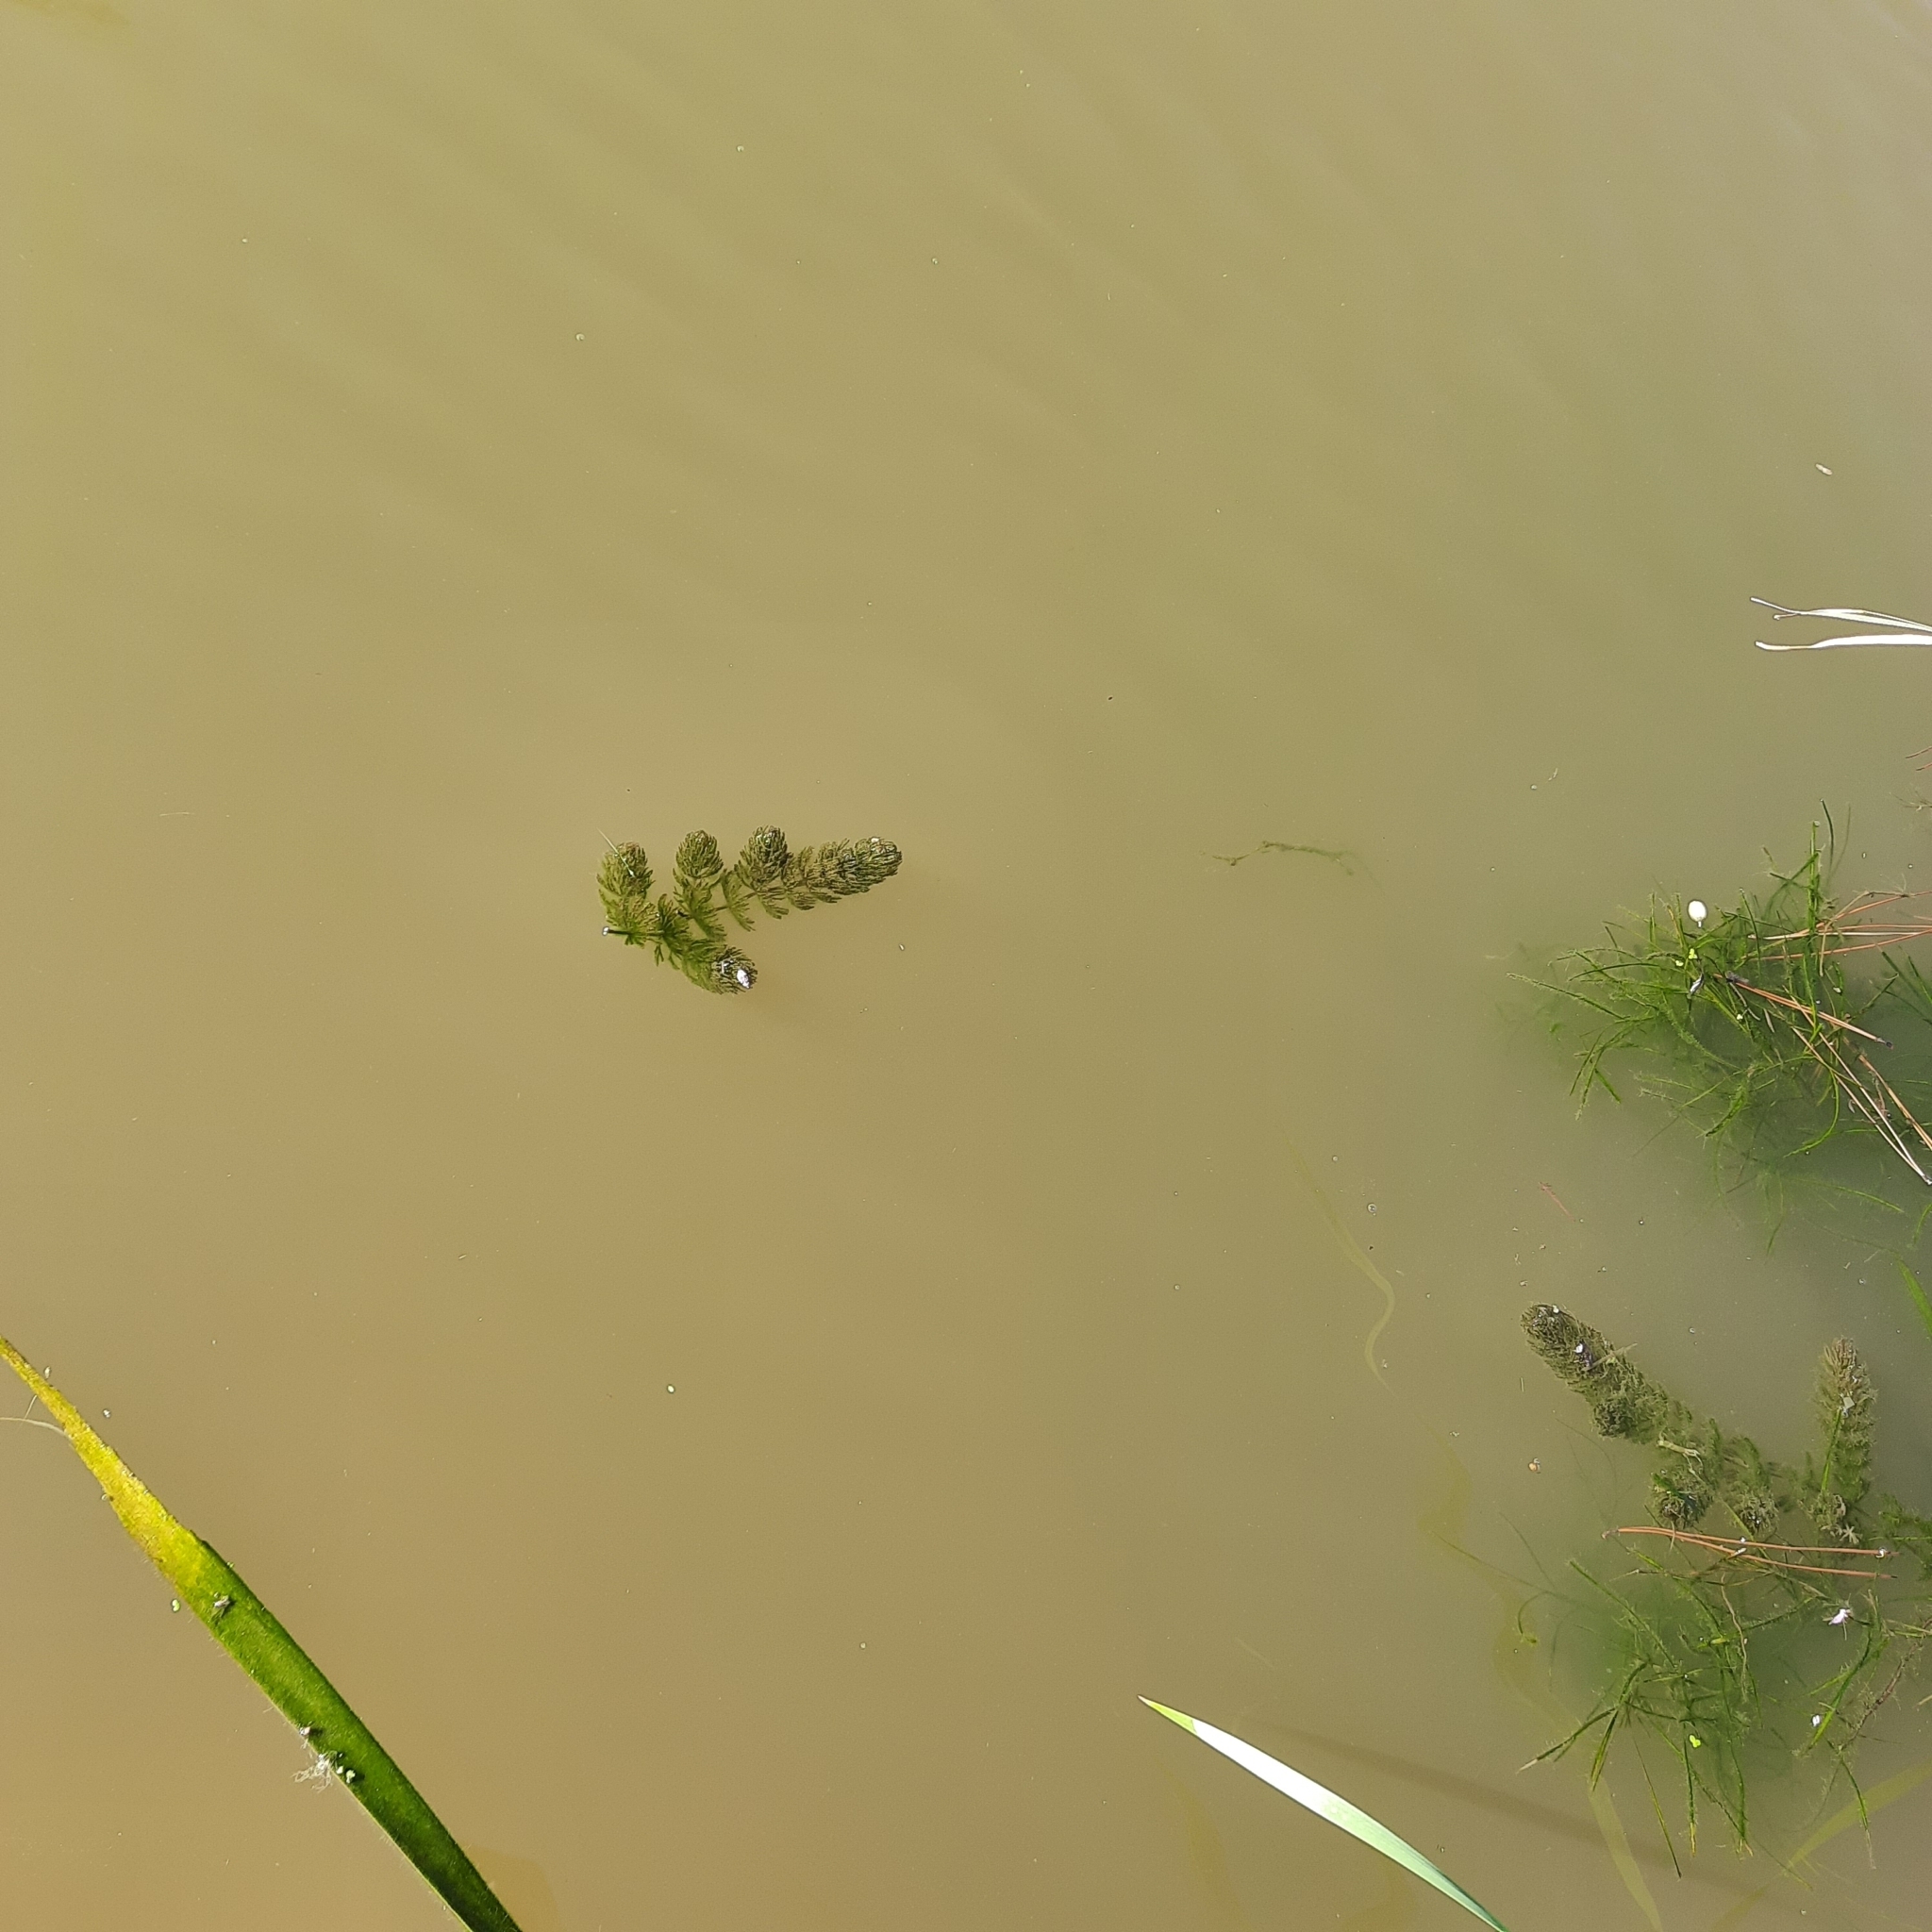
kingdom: Plantae
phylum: Tracheophyta
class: Magnoliopsida
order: Ceratophyllales
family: Ceratophyllaceae
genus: Ceratophyllum
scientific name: Ceratophyllum demersum
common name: Rigid hornwort
